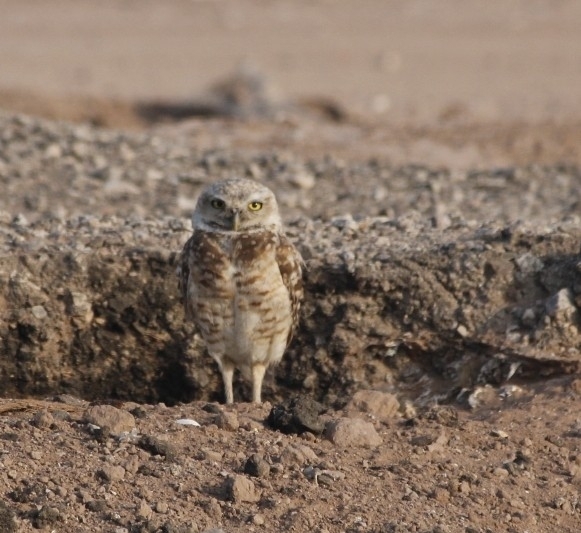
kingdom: Animalia
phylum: Chordata
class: Aves
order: Strigiformes
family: Strigidae
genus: Athene
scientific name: Athene cunicularia
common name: Burrowing owl
